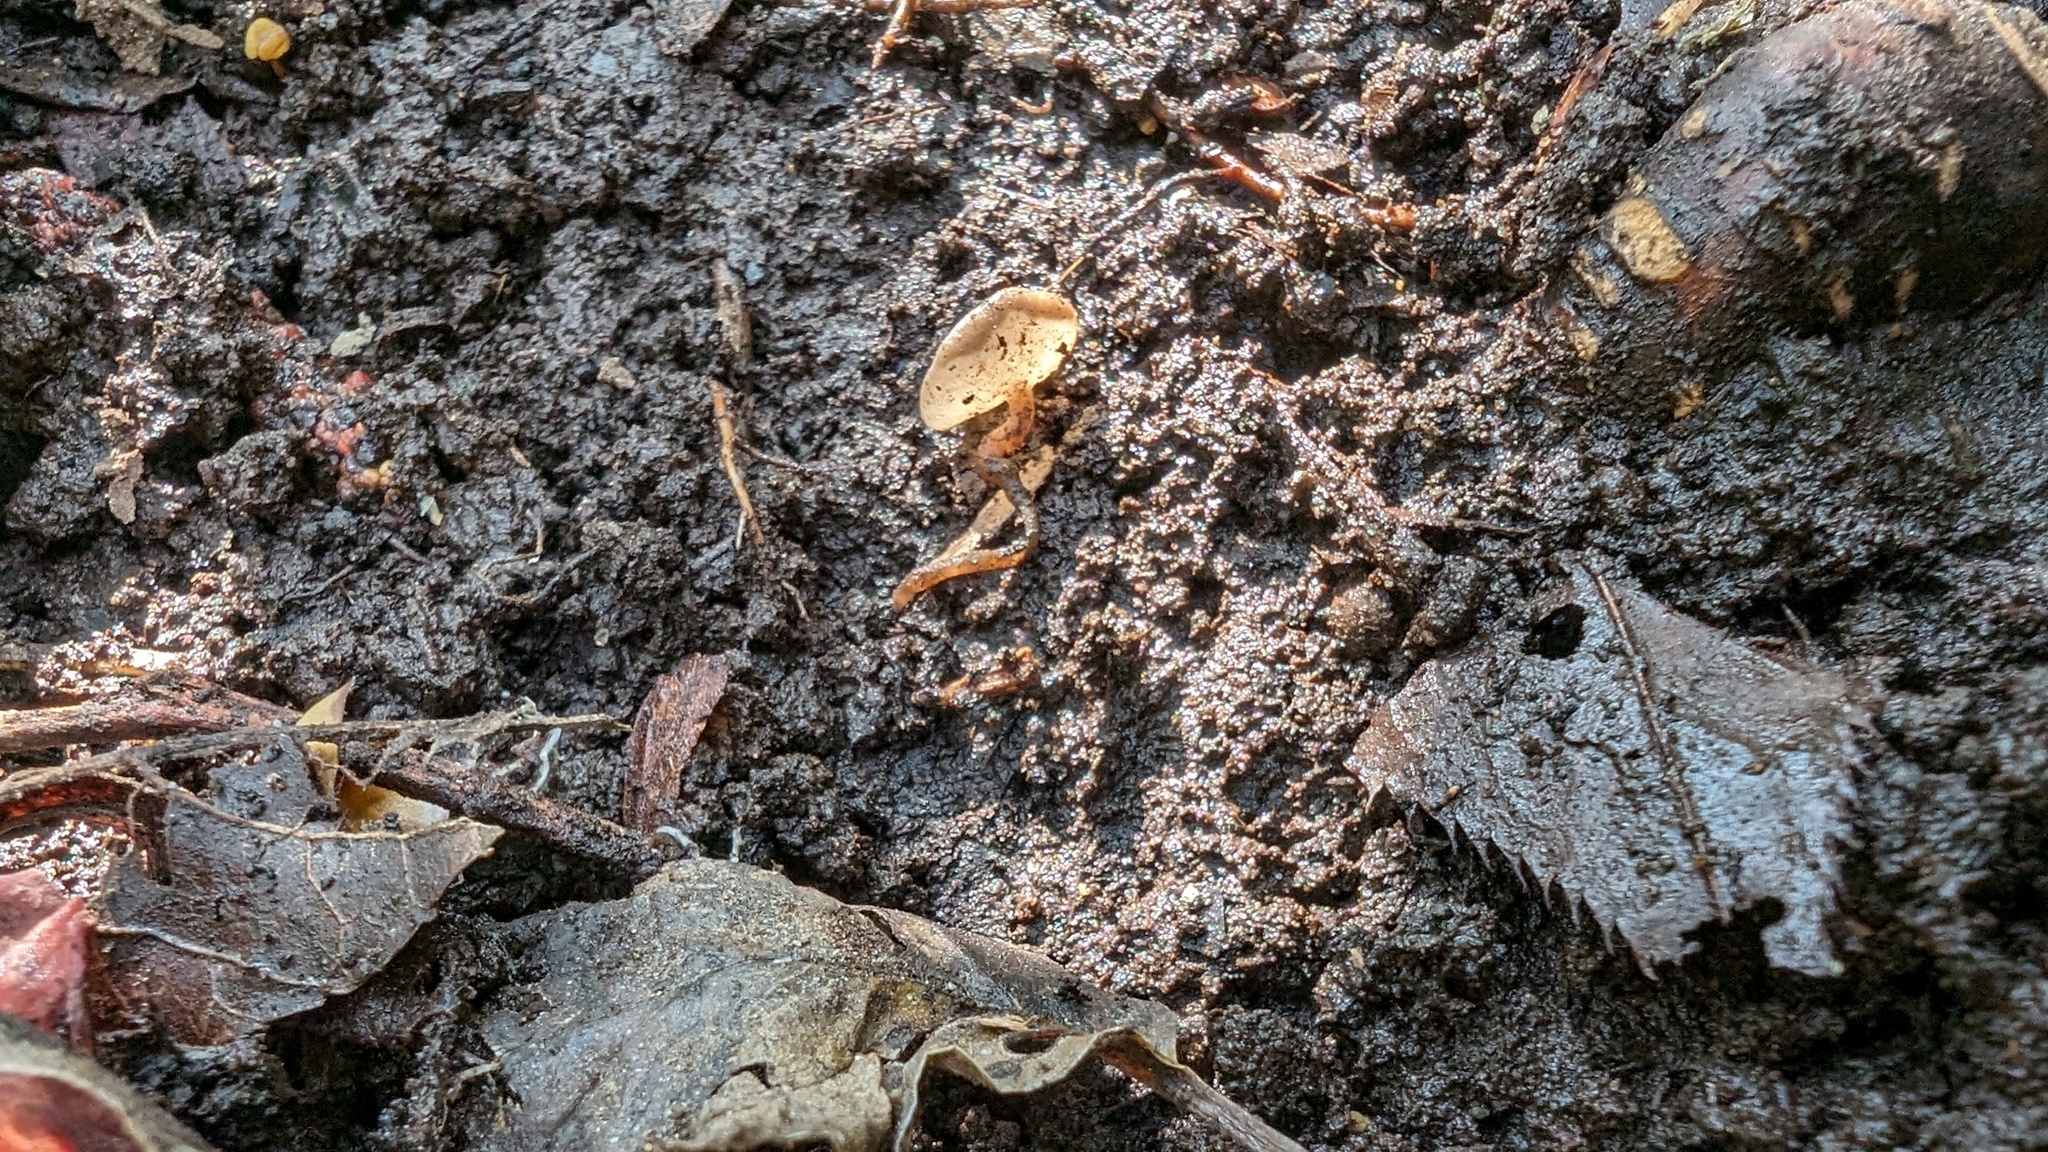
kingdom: Fungi
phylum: Ascomycota
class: Leotiomycetes
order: Helotiales
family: Sclerotiniaceae
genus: Ciborinia
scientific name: Ciborinia camelliae
